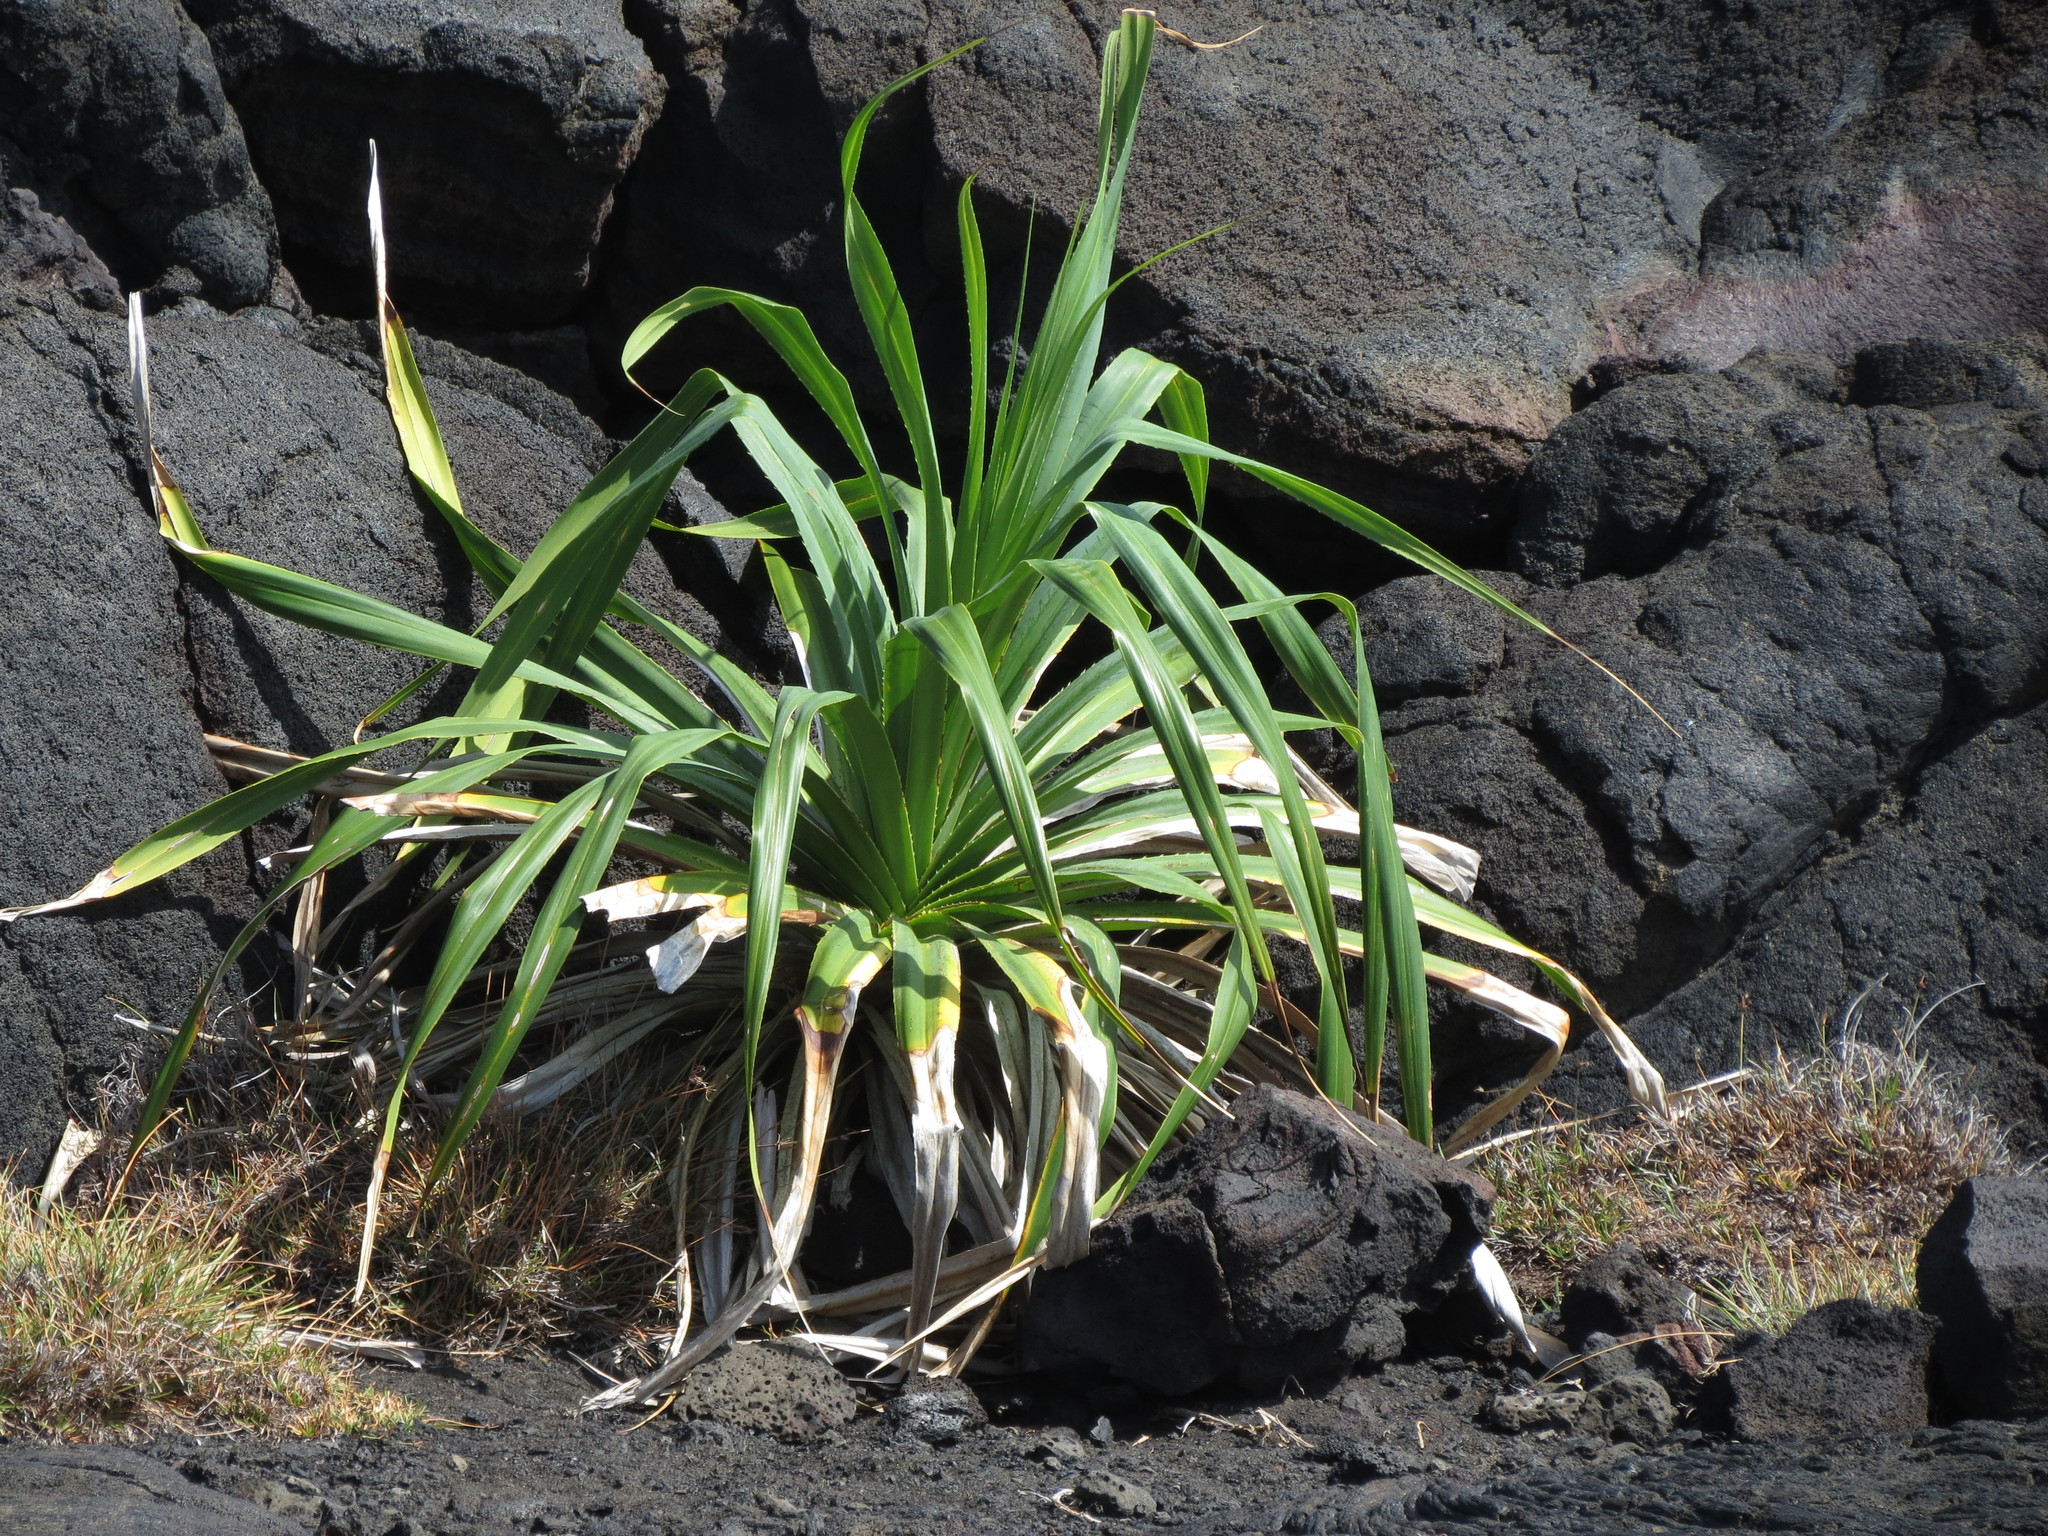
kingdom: Plantae
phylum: Tracheophyta
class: Liliopsida
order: Pandanales
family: Pandanaceae
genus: Pandanus
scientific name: Pandanus tectorius
